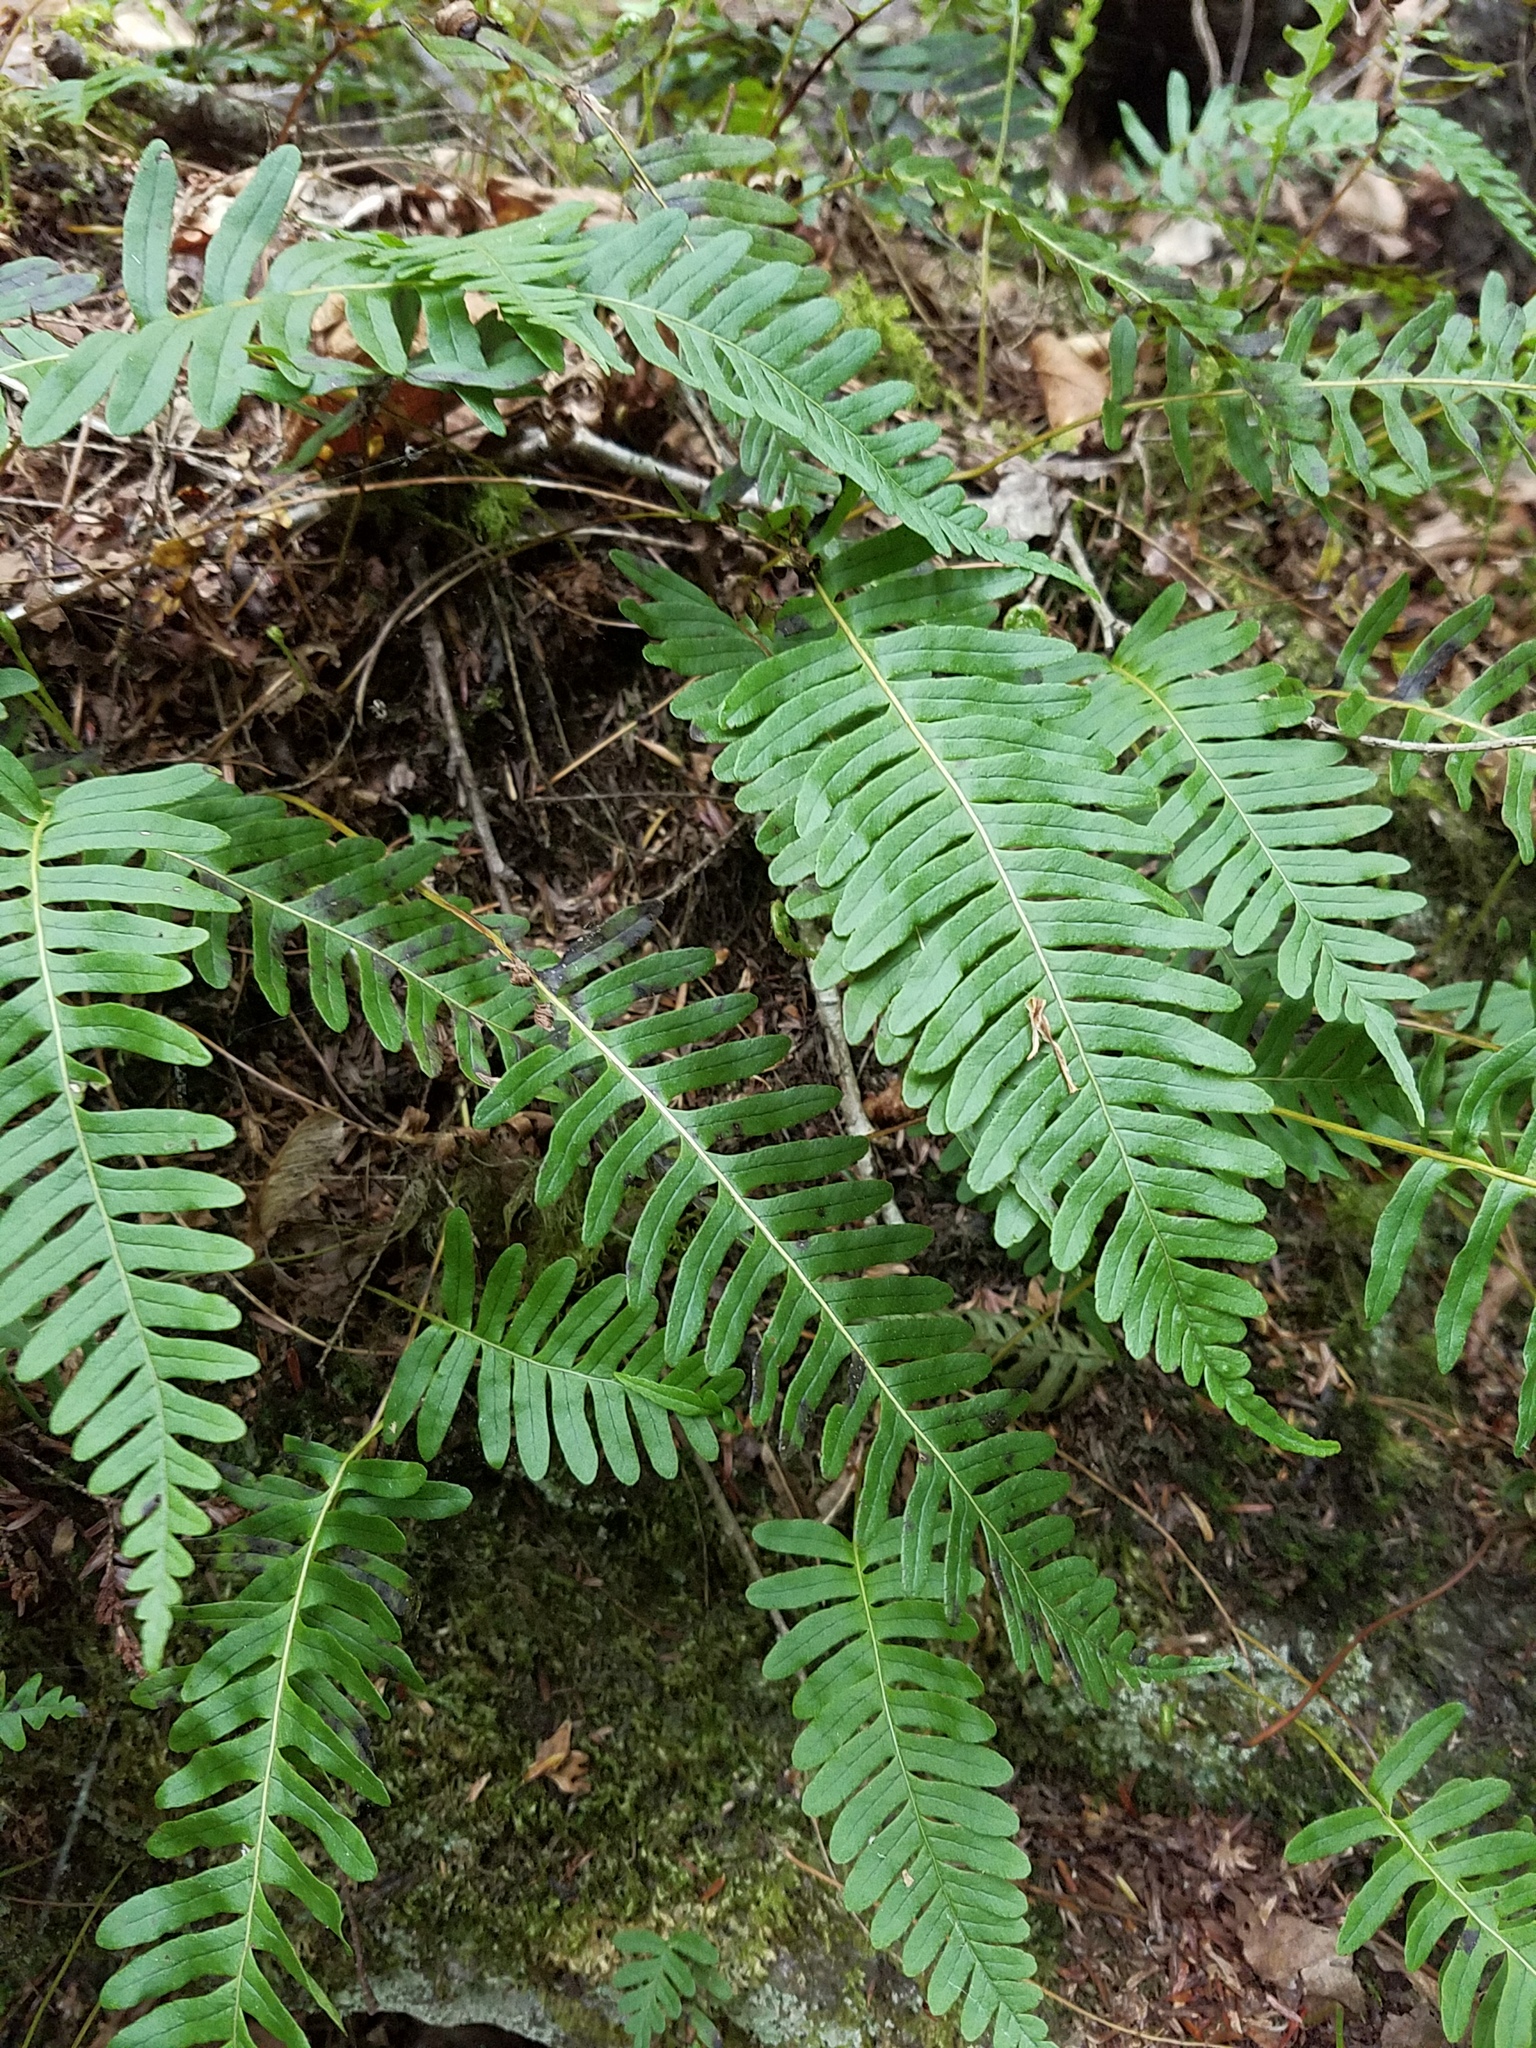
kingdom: Plantae
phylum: Tracheophyta
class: Polypodiopsida
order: Polypodiales
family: Polypodiaceae
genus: Polypodium
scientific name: Polypodium virginianum
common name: American wall fern
